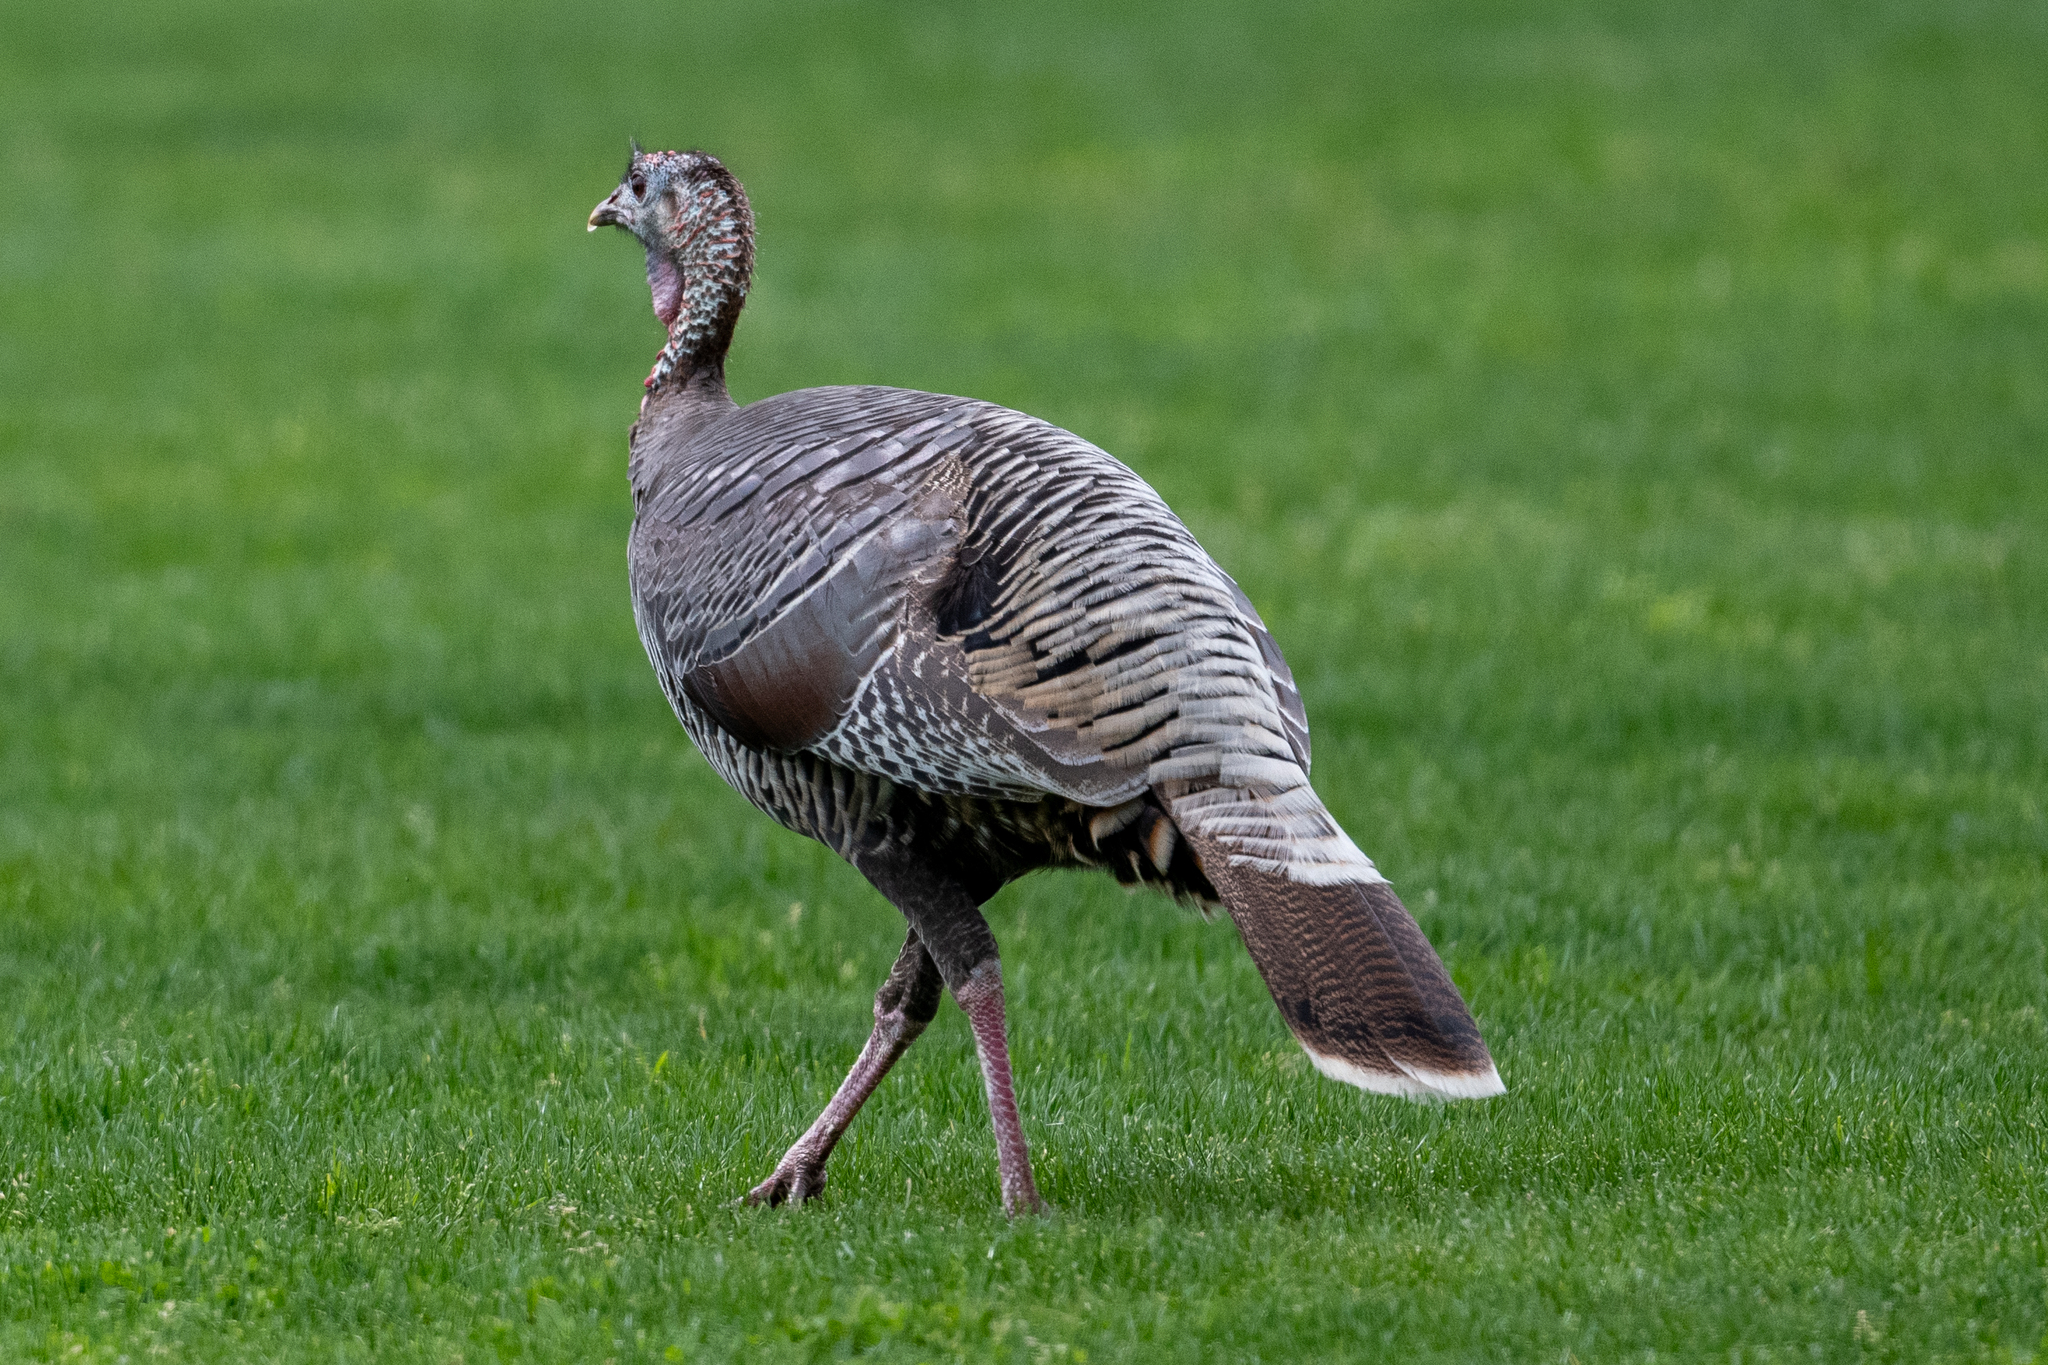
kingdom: Animalia
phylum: Chordata
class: Aves
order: Galliformes
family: Phasianidae
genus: Meleagris
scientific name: Meleagris gallopavo
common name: Wild turkey
